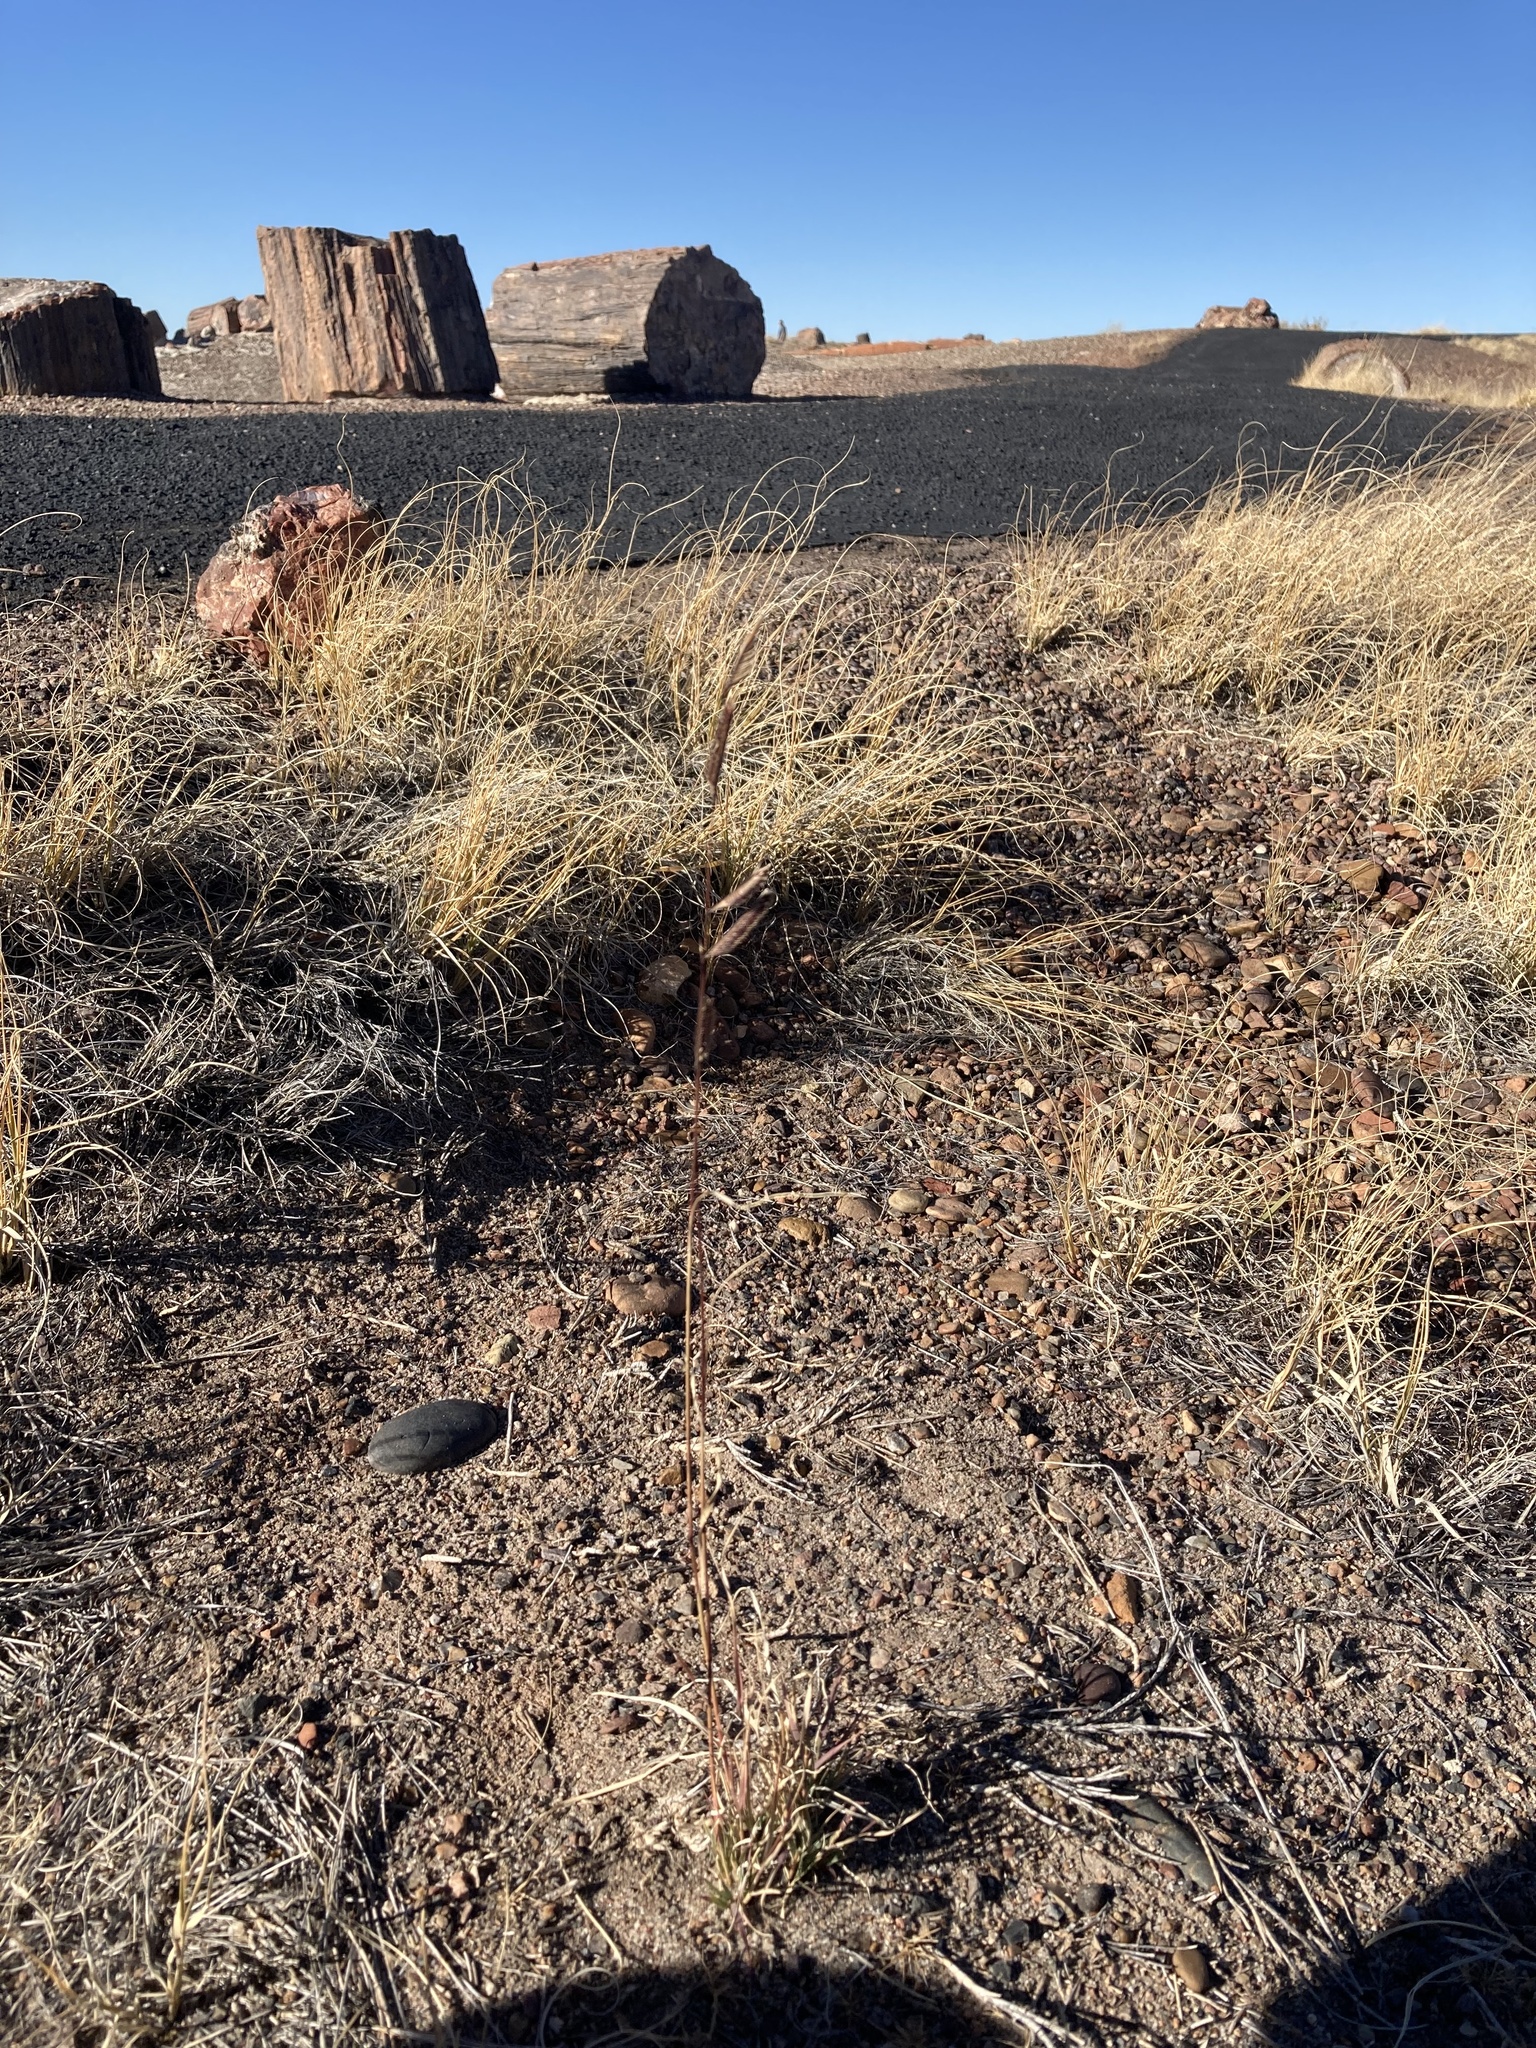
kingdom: Plantae
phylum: Tracheophyta
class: Liliopsida
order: Poales
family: Poaceae
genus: Bouteloua
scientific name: Bouteloua gracilis
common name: Blue grama
